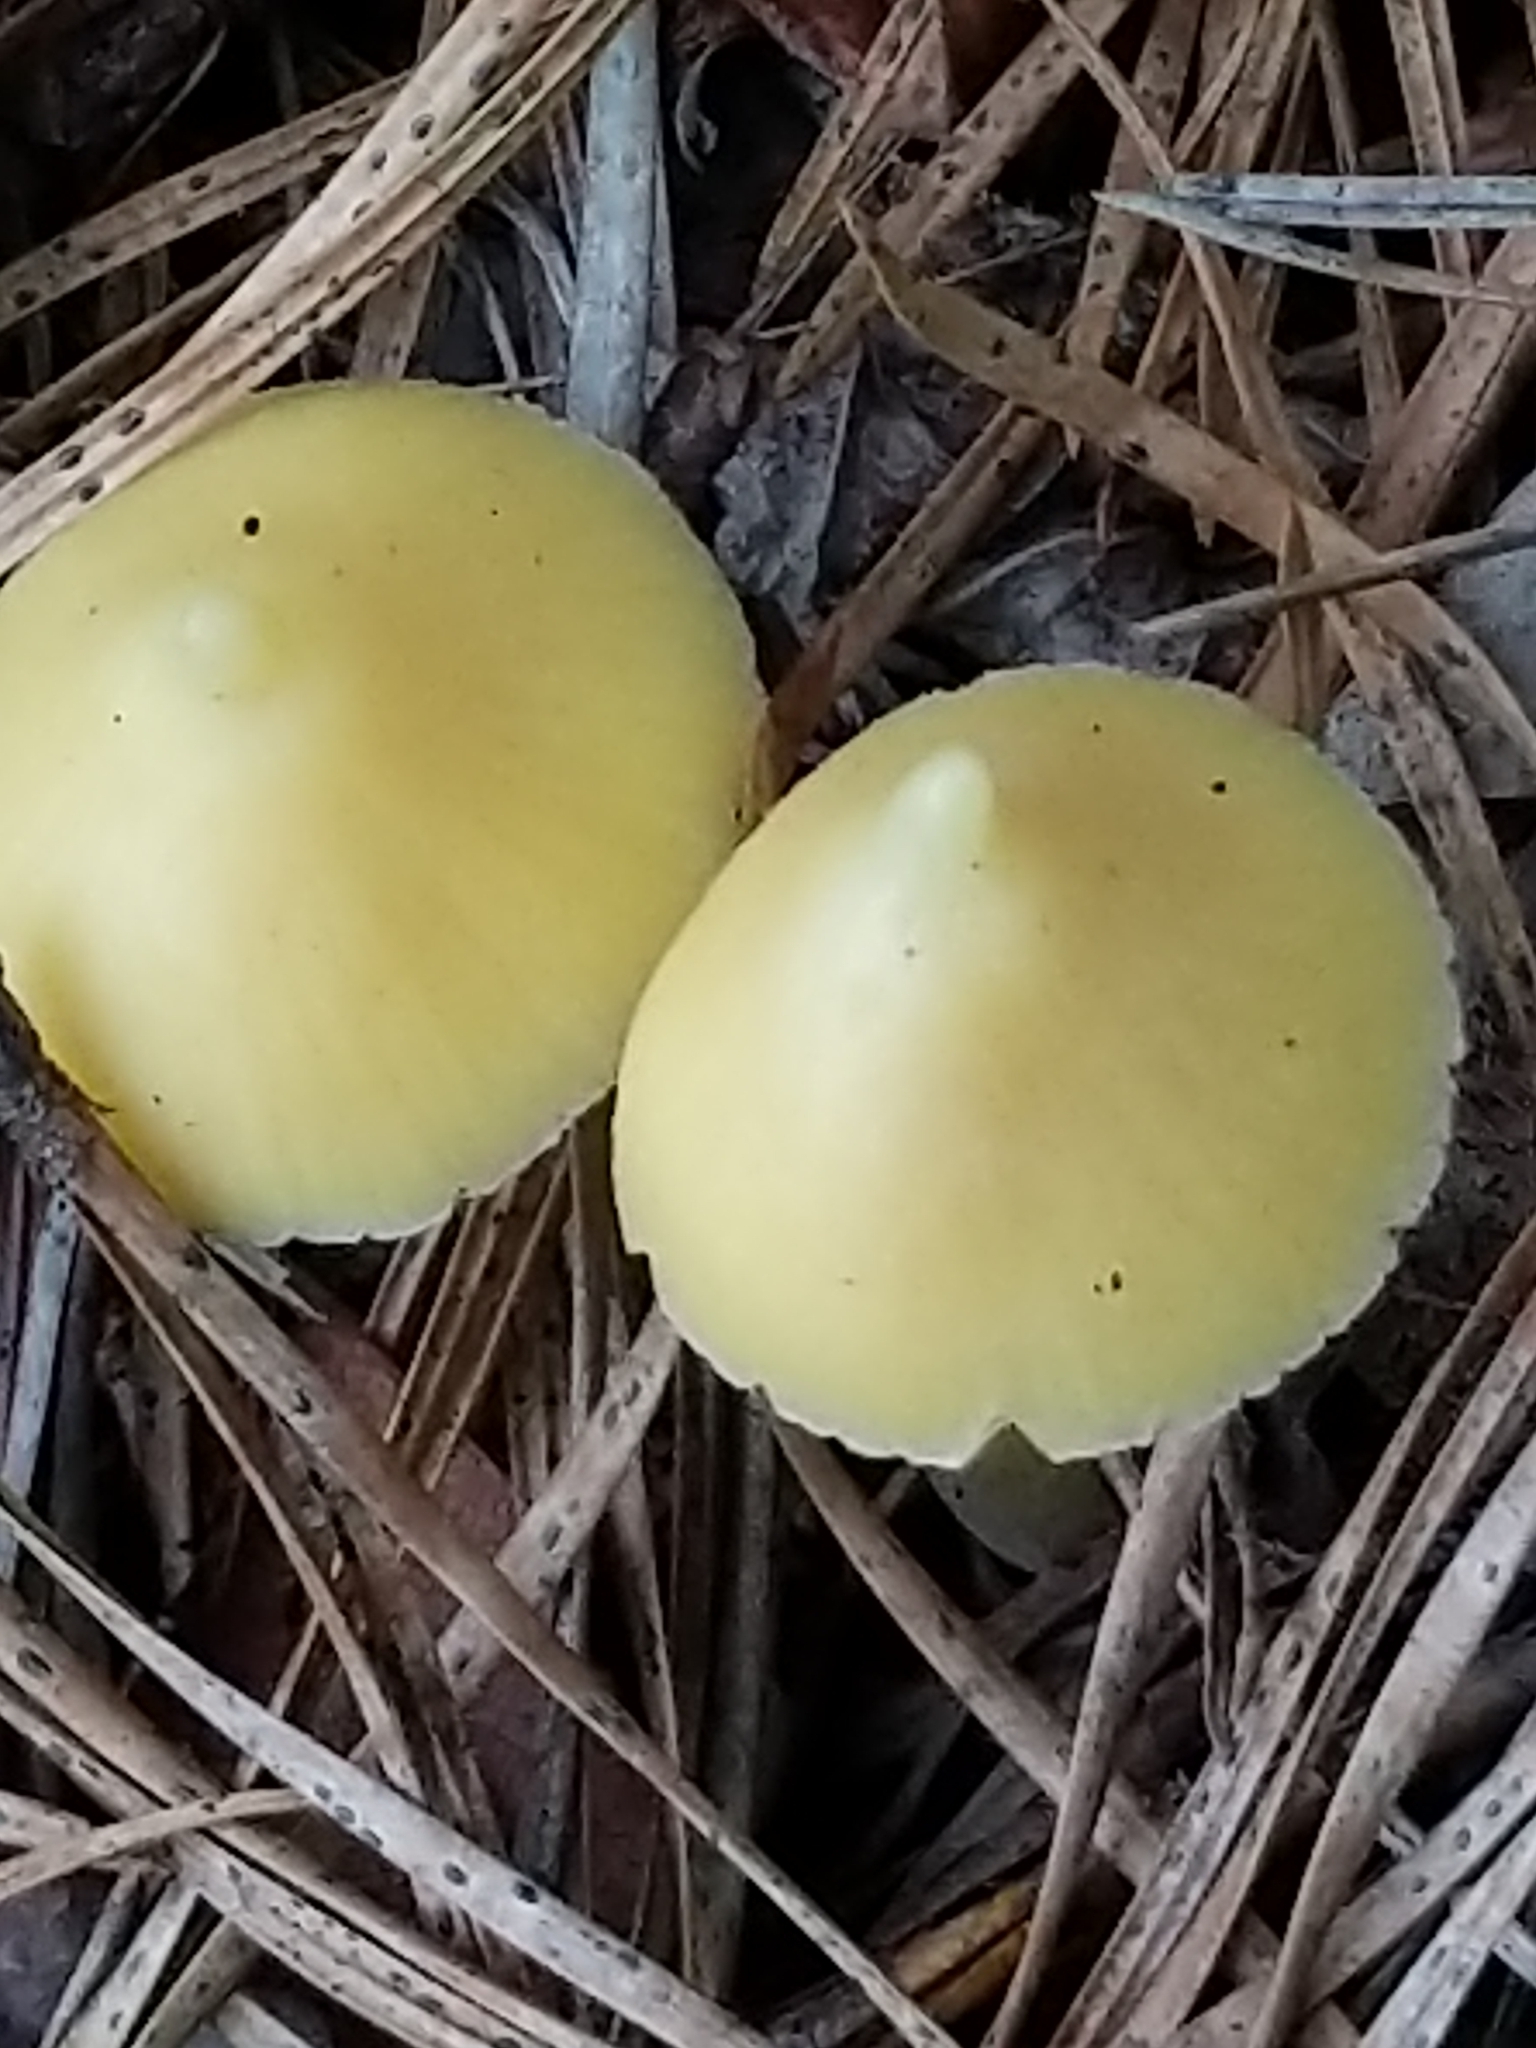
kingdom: Fungi
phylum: Basidiomycota
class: Agaricomycetes
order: Agaricales
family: Entolomataceae
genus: Entoloma
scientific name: Entoloma murrayi
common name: Yellow unicorn entoloma
